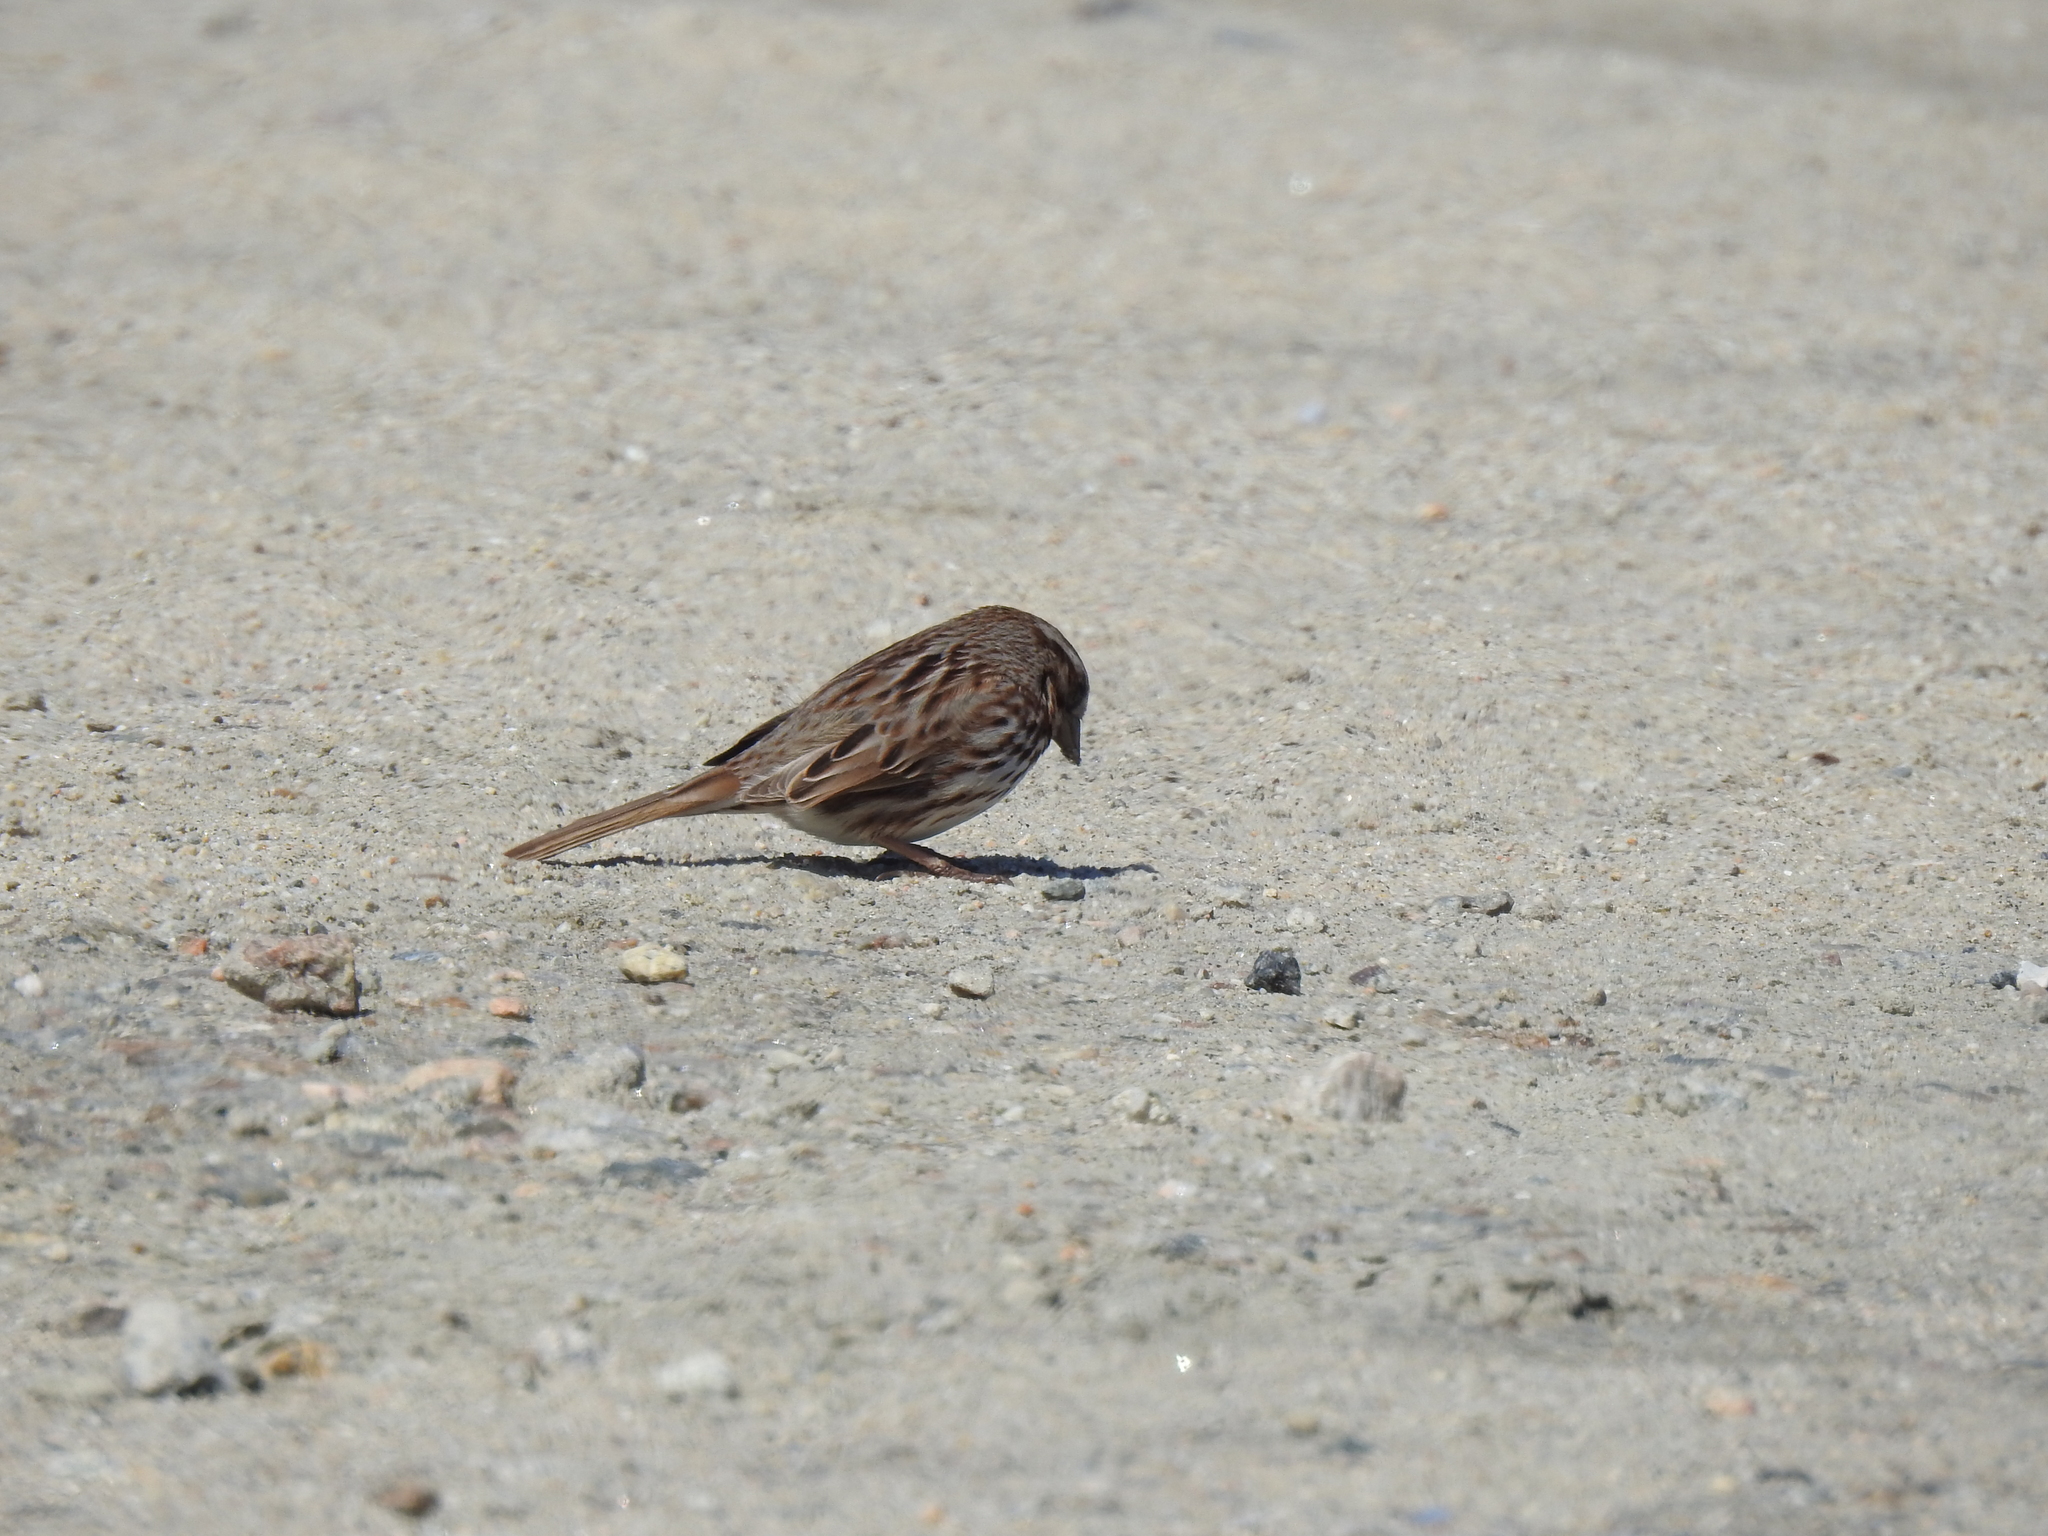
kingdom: Animalia
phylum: Chordata
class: Aves
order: Passeriformes
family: Passerellidae
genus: Melospiza
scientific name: Melospiza melodia
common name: Song sparrow
